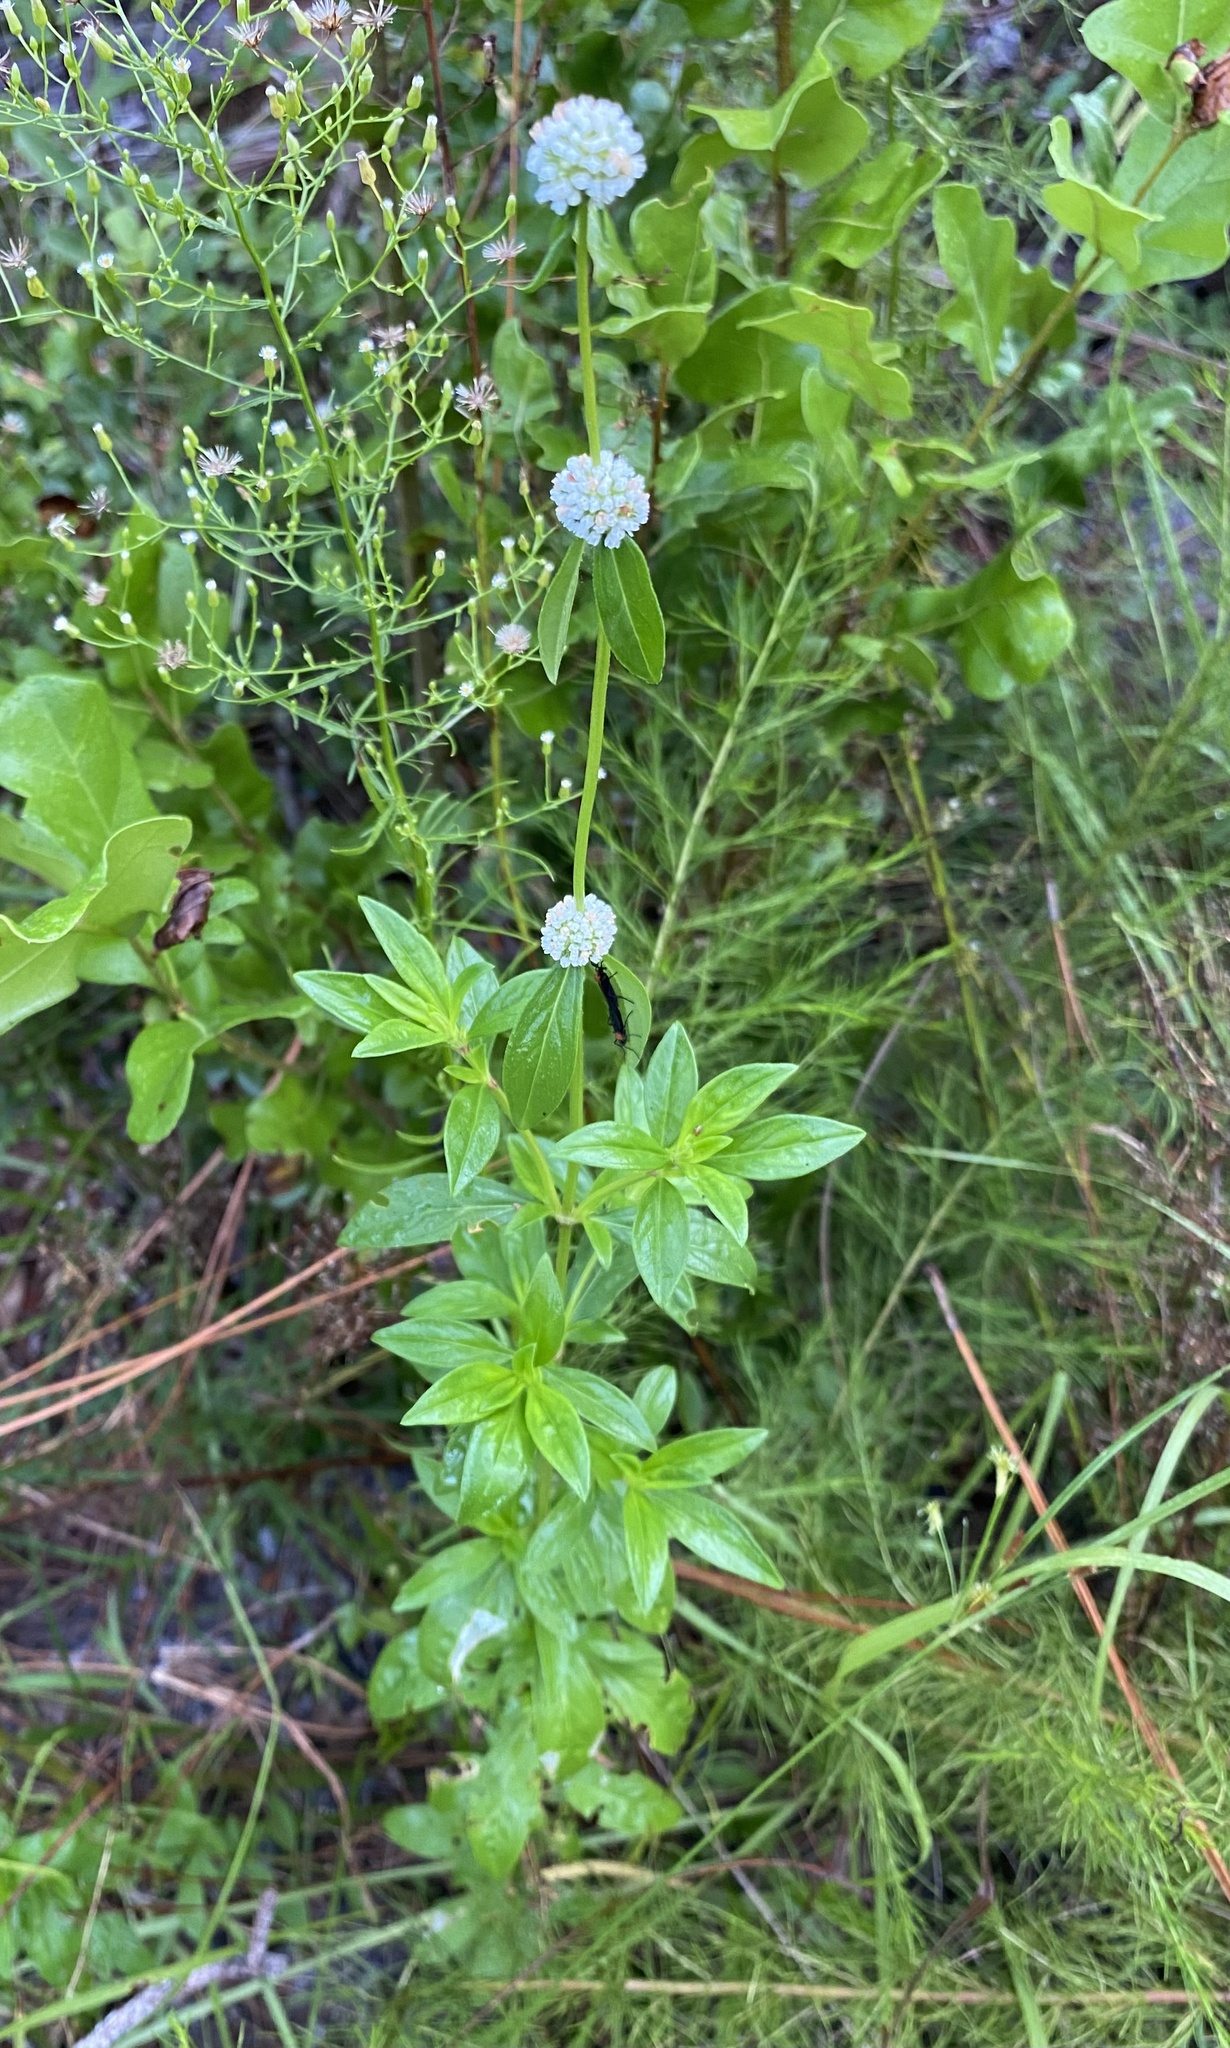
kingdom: Plantae
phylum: Tracheophyta
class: Magnoliopsida
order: Gentianales
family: Rubiaceae
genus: Spermacoce
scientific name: Spermacoce verticillata
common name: Shrubby false buttonweed
